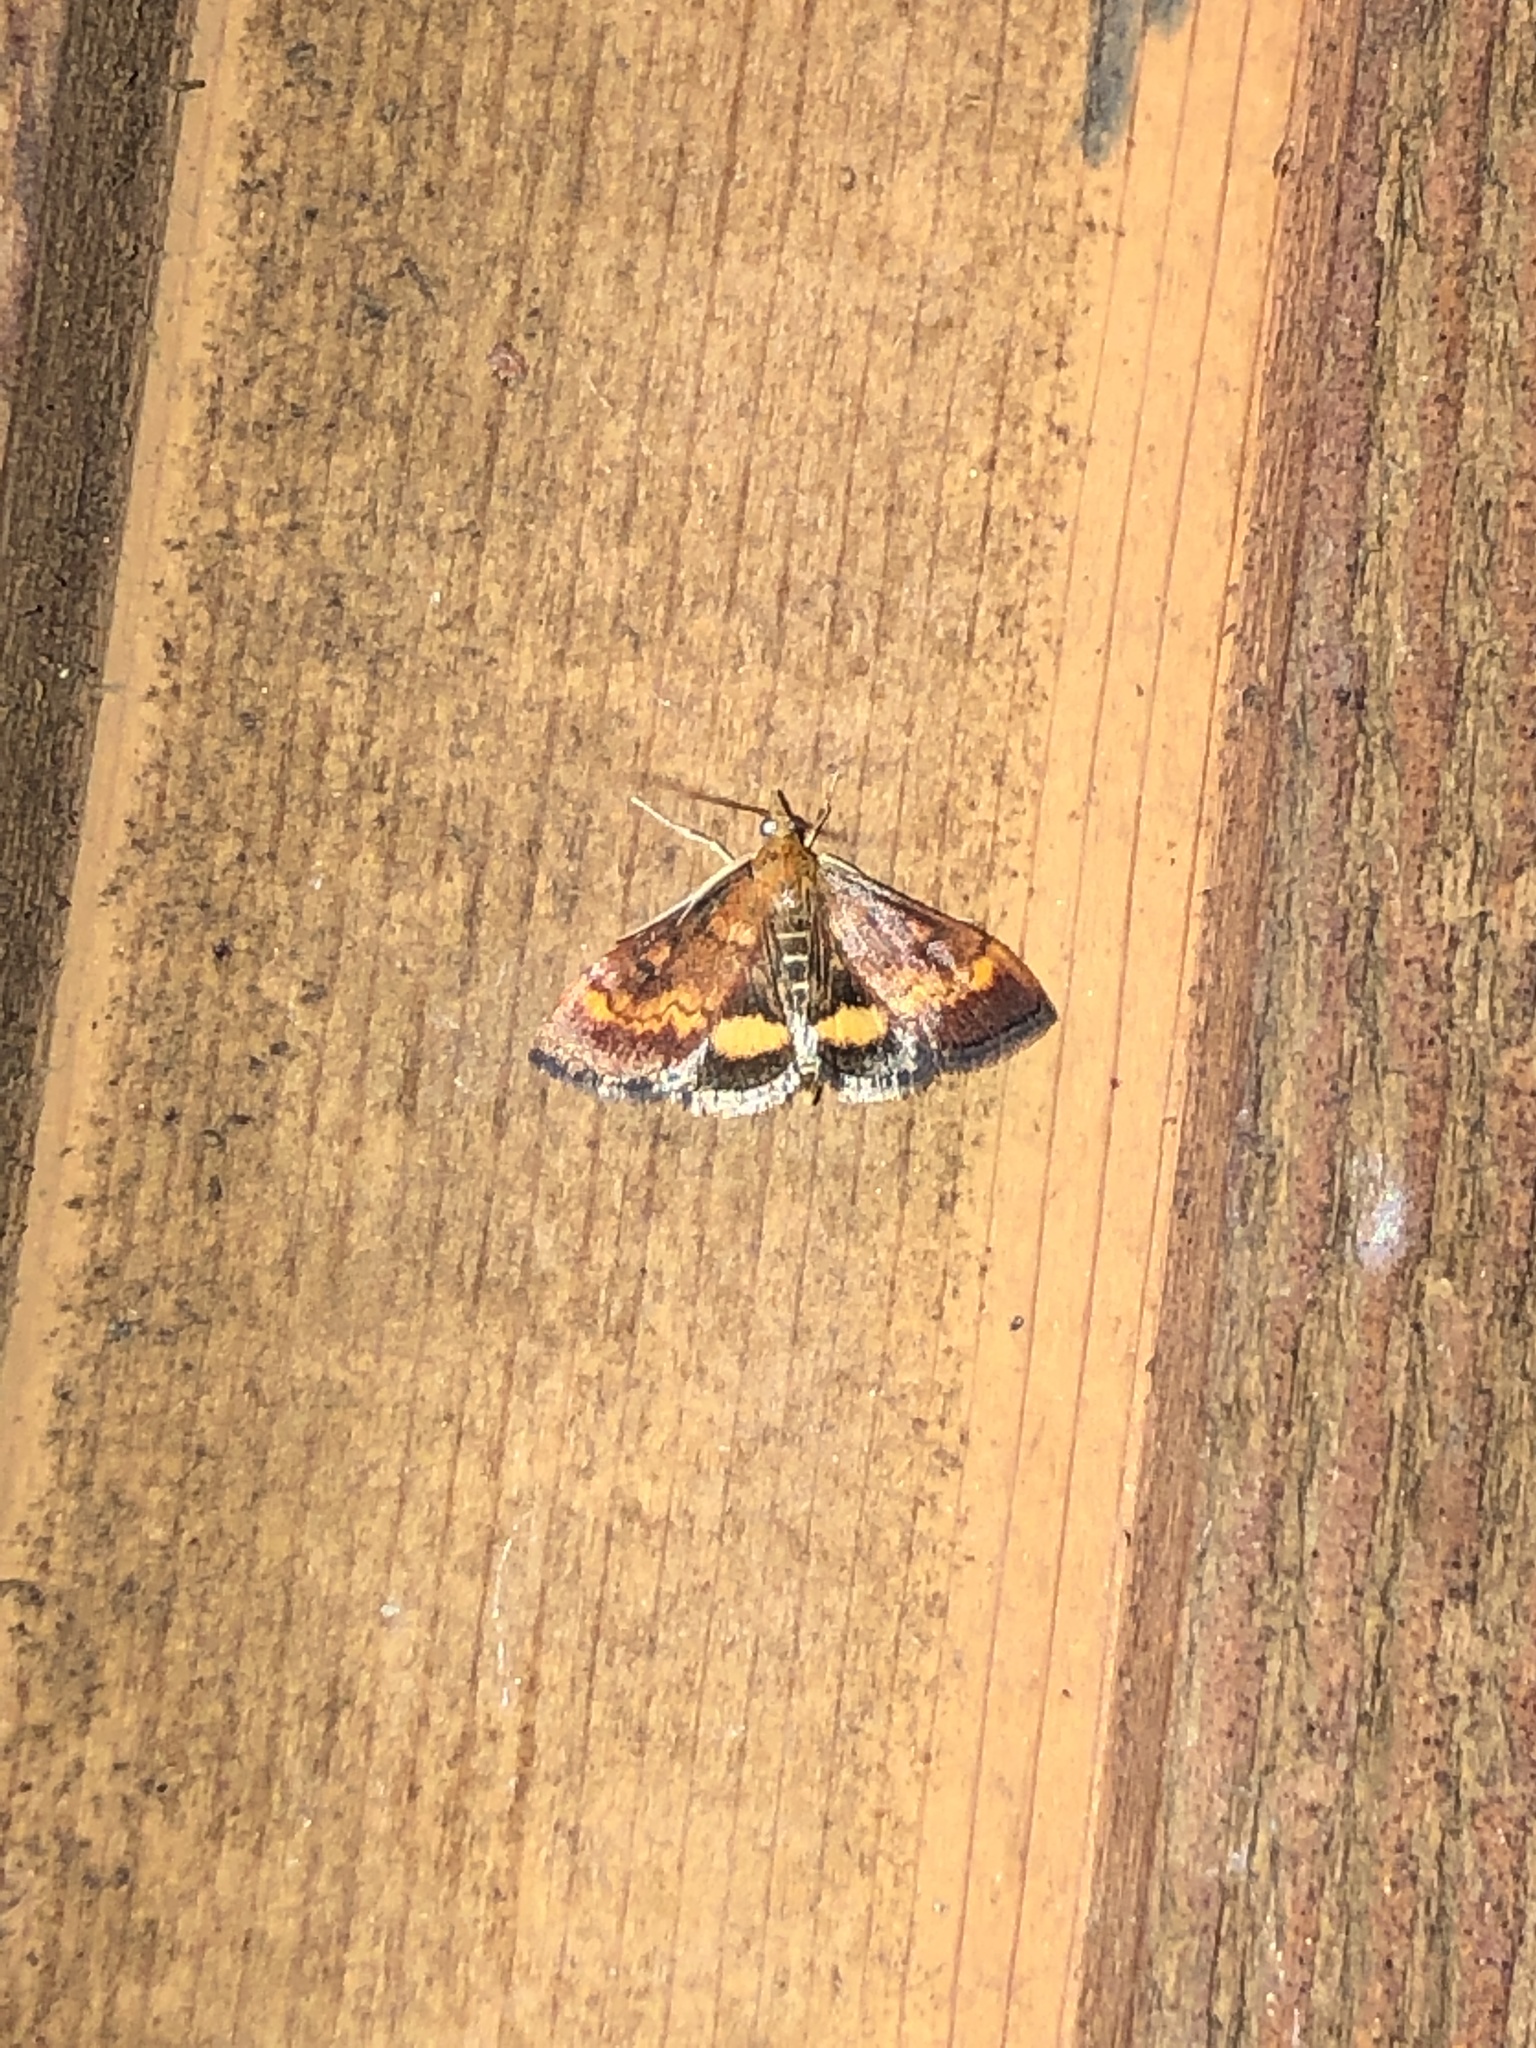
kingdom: Animalia
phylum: Arthropoda
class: Insecta
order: Lepidoptera
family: Crambidae
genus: Pyrausta
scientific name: Pyrausta californicalis
